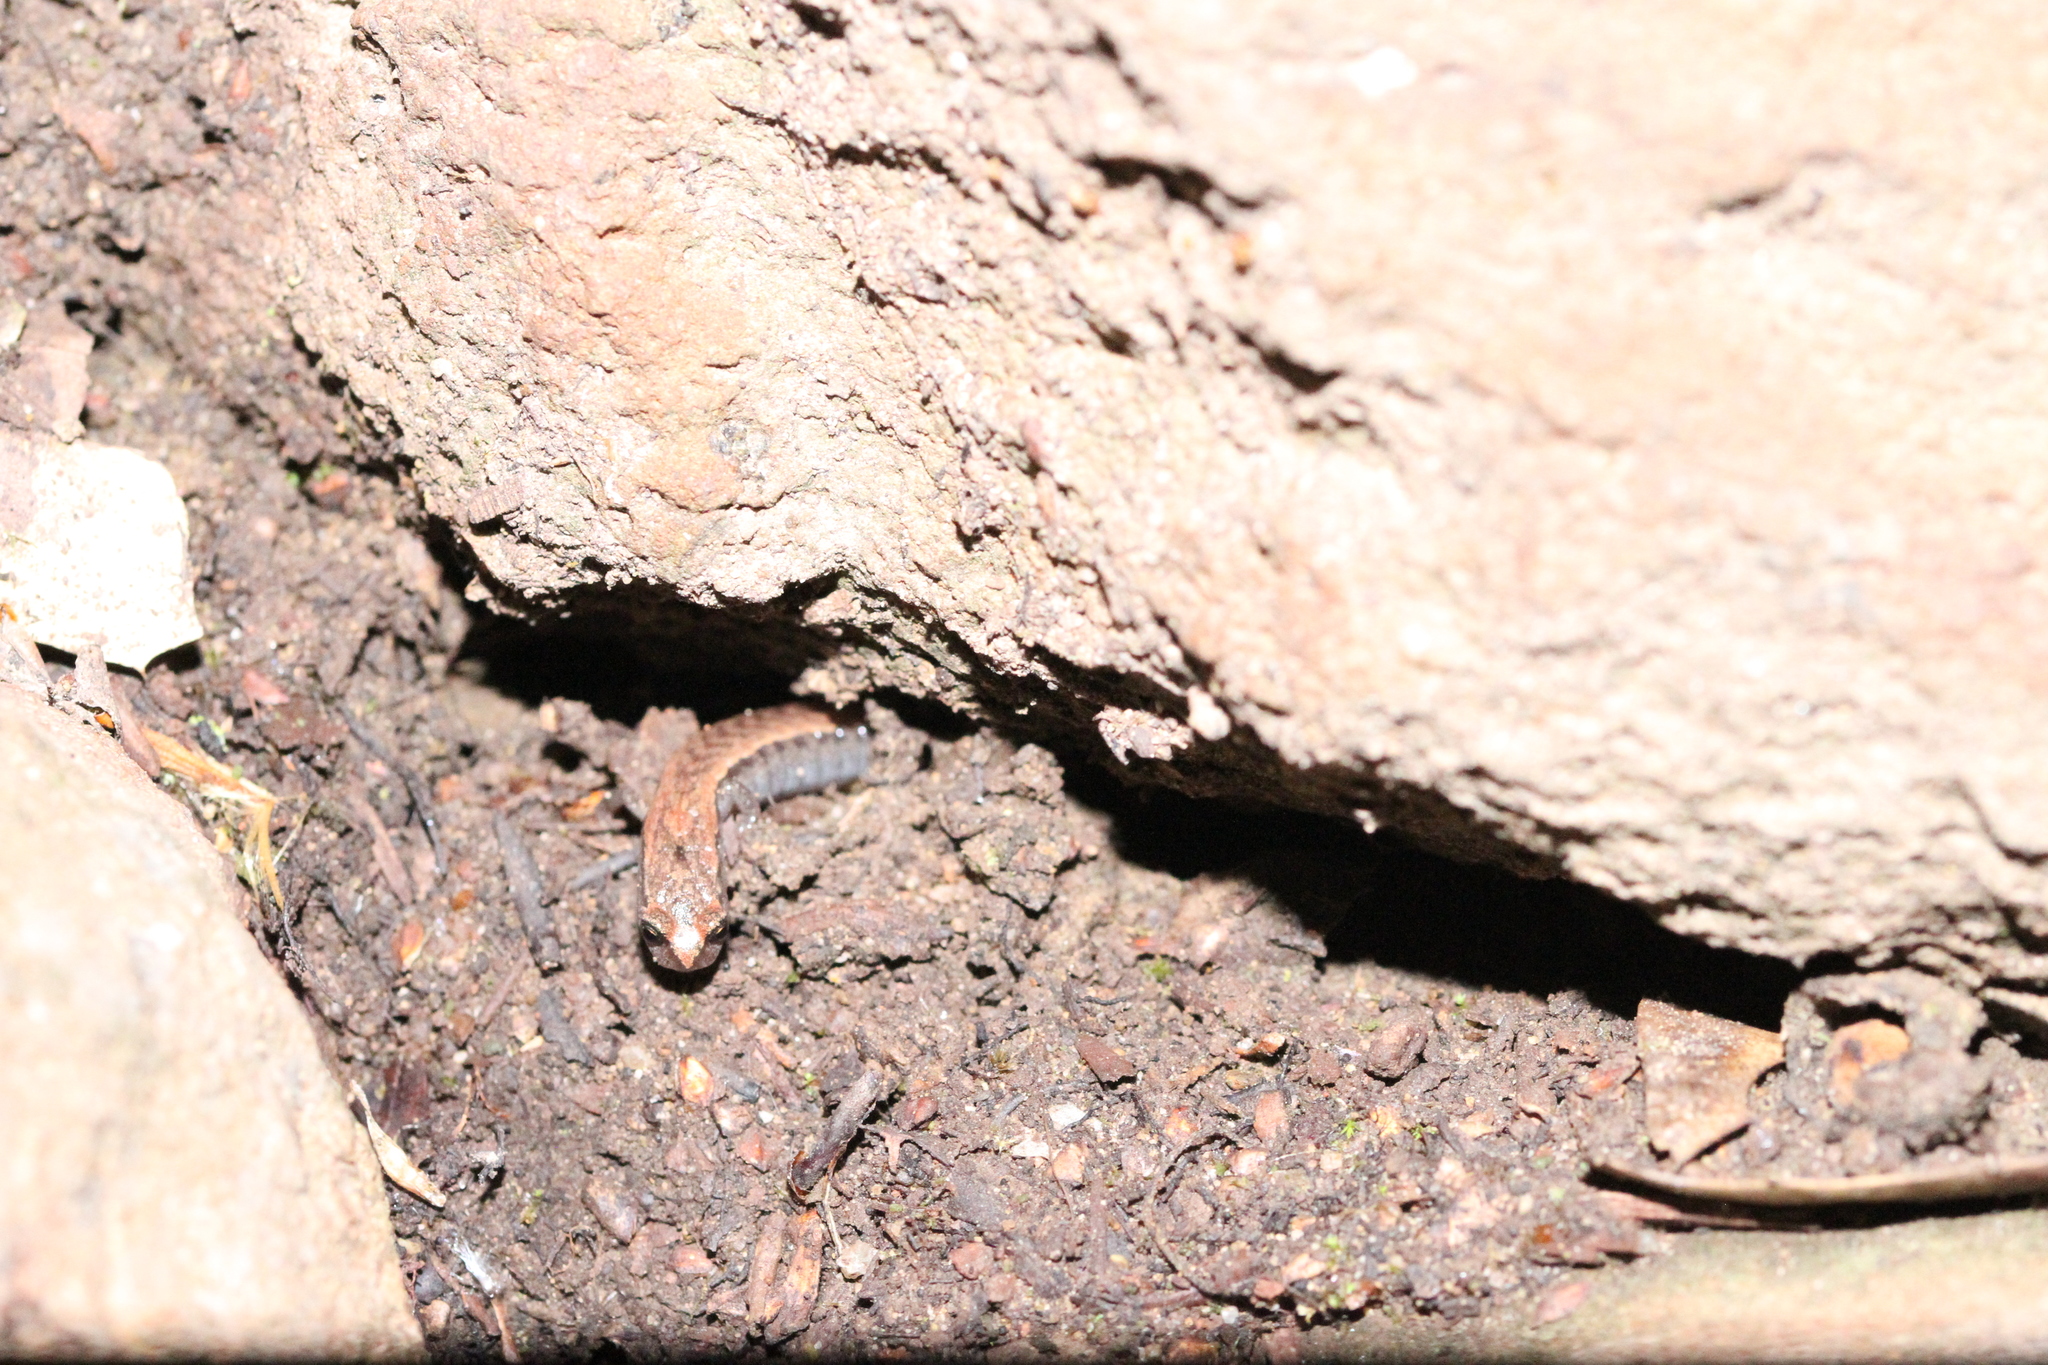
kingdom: Animalia
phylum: Chordata
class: Amphibia
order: Caudata
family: Plethodontidae
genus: Batrachoseps
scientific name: Batrachoseps attenuatus
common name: California slender salamander
